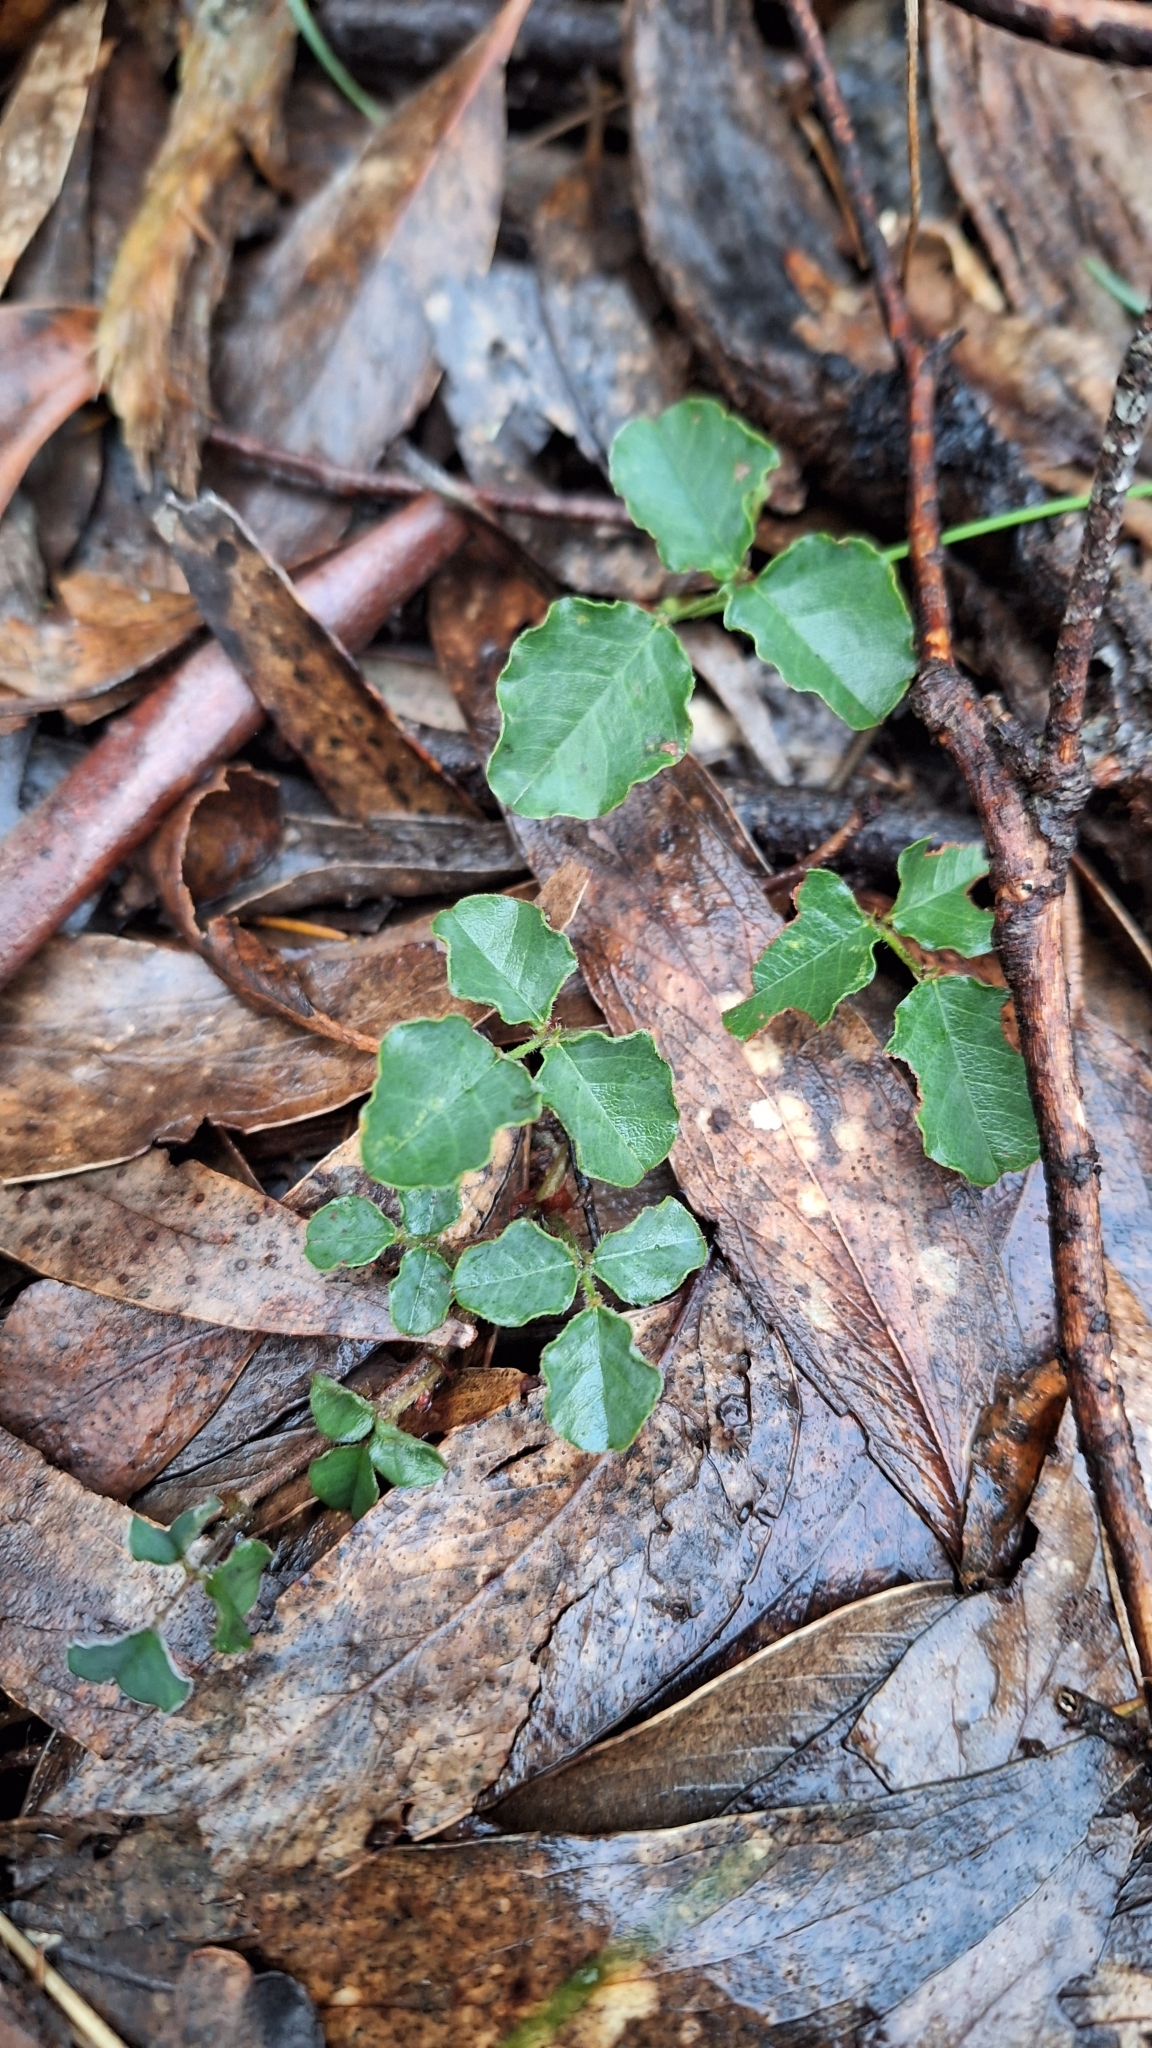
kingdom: Plantae
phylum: Tracheophyta
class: Magnoliopsida
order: Fabales
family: Fabaceae
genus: Kennedia
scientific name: Kennedia prostrata
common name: Running-postman
